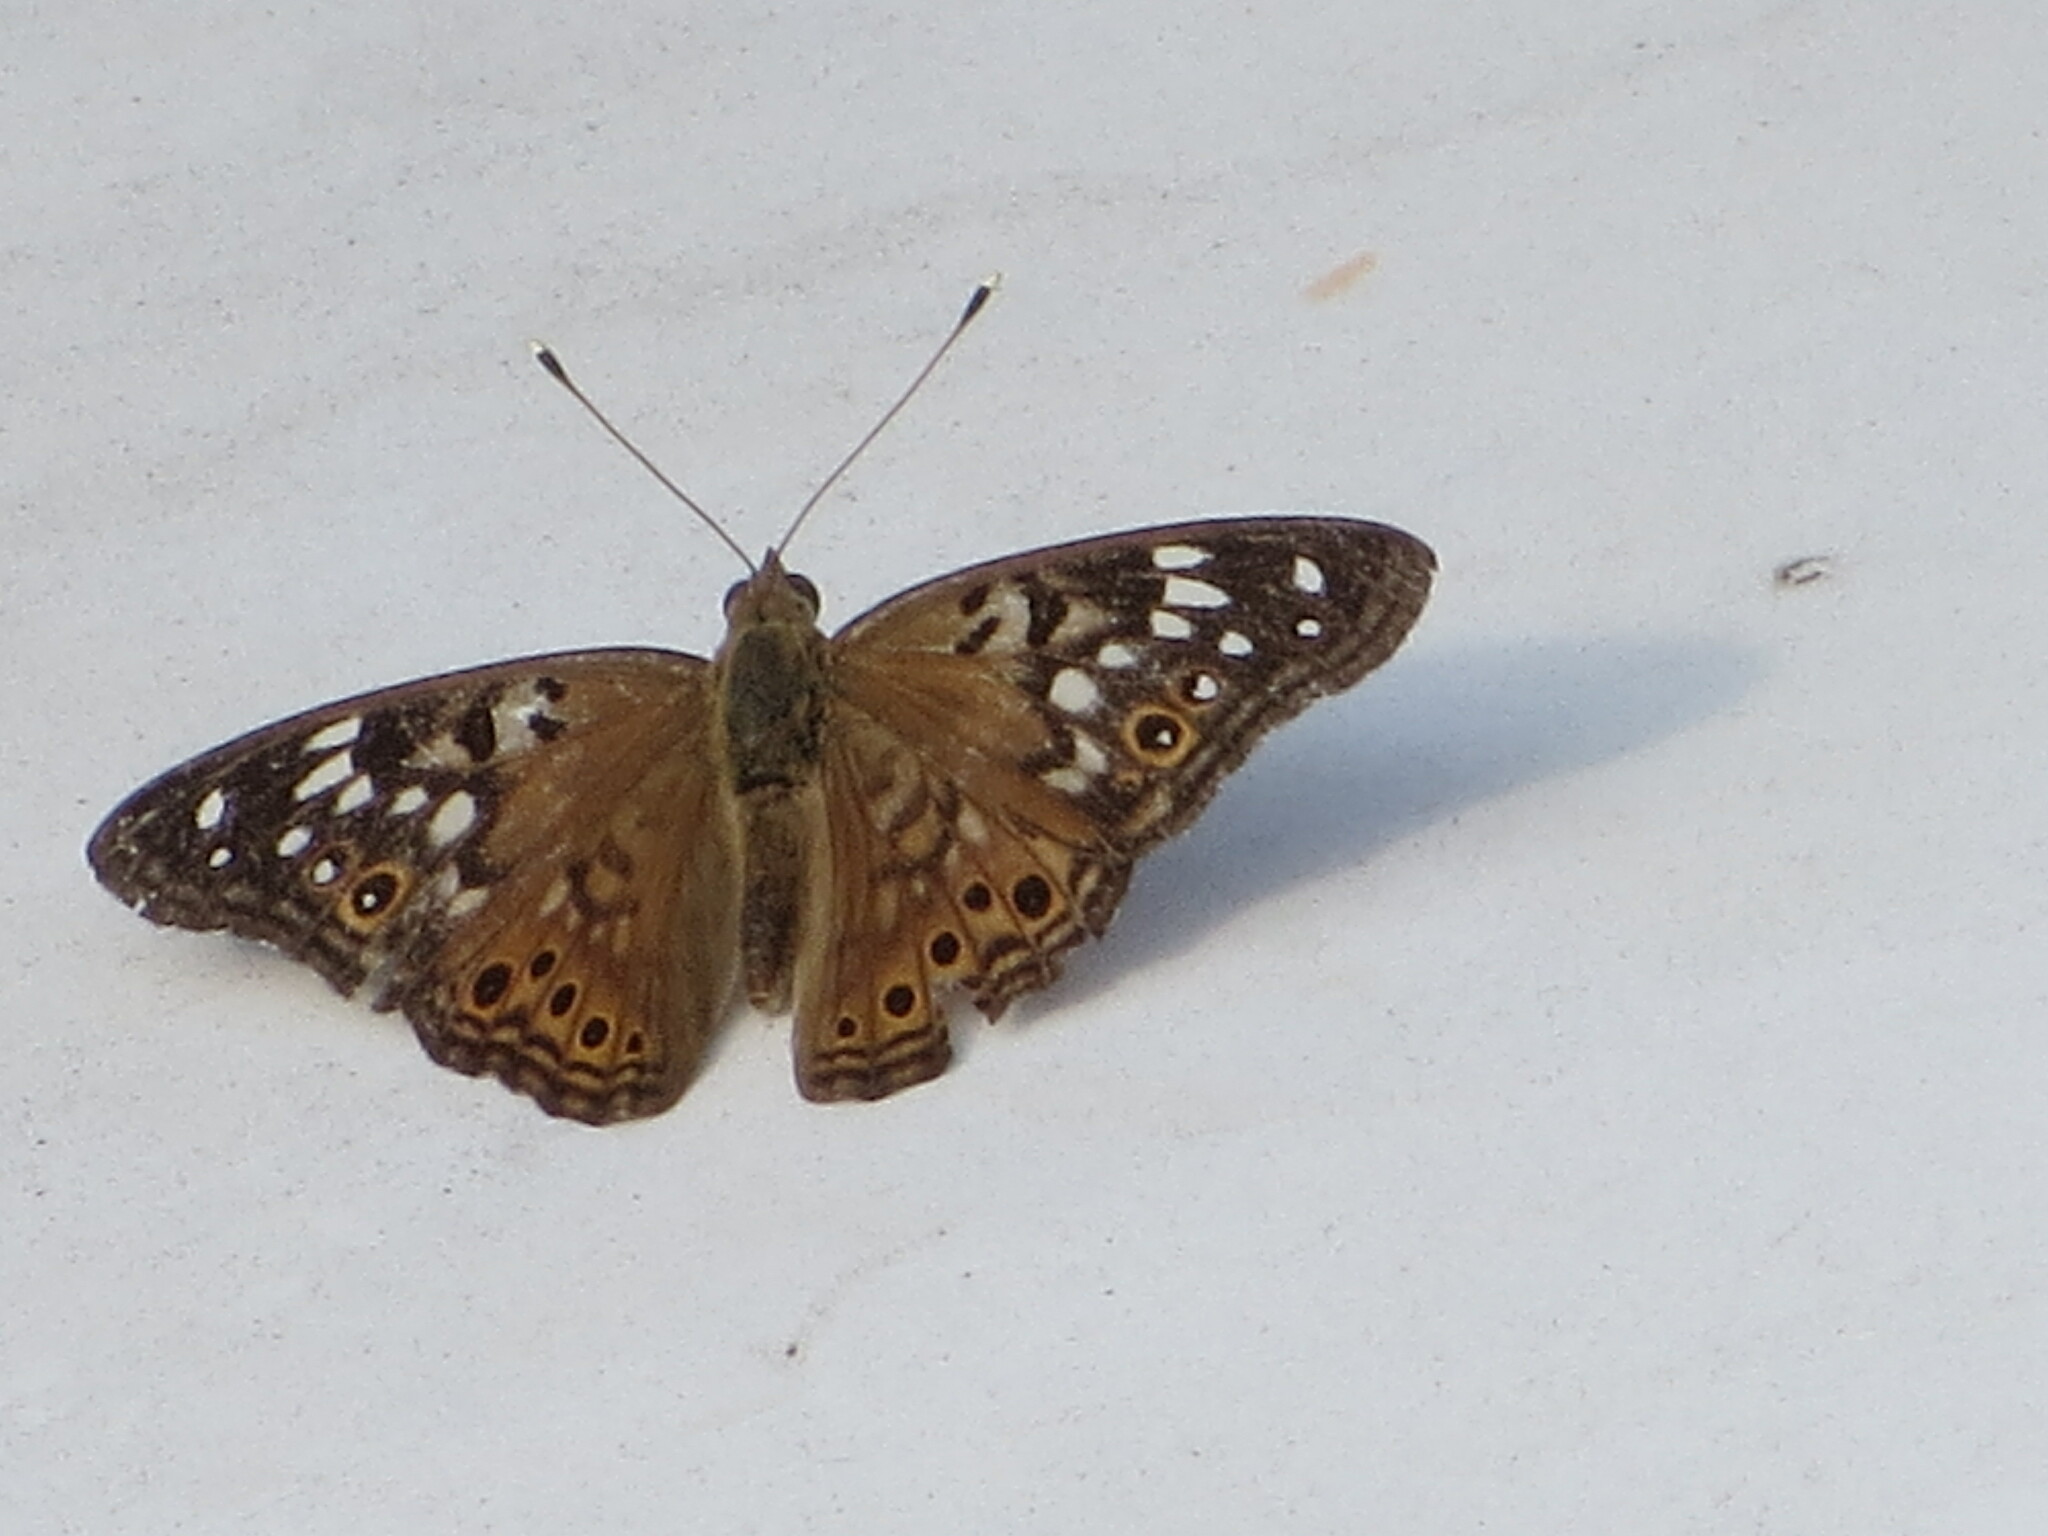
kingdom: Animalia
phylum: Arthropoda
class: Insecta
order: Lepidoptera
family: Nymphalidae
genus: Asterocampa
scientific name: Asterocampa celtis
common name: Hackberry emperor
